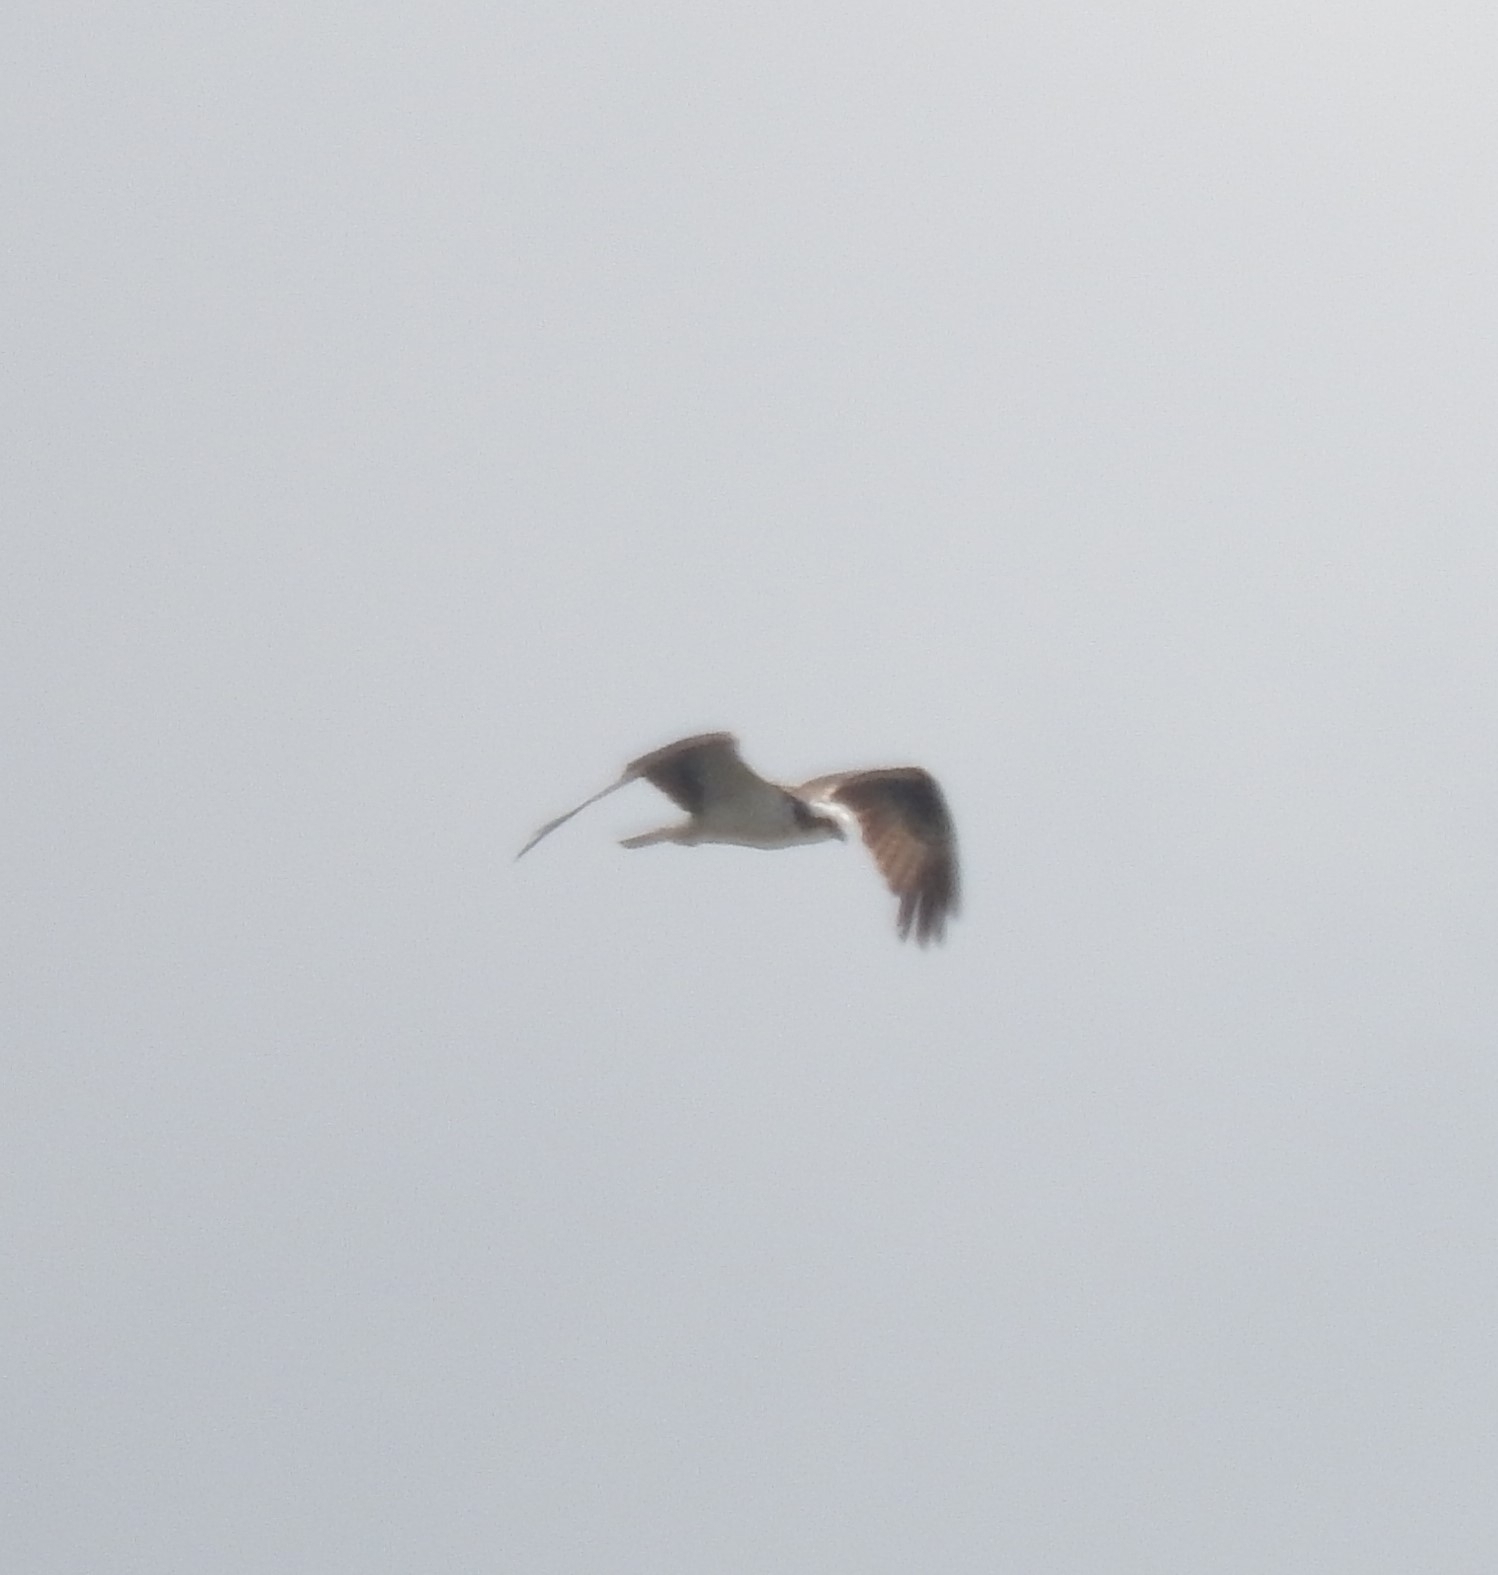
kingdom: Animalia
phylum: Chordata
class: Aves
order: Accipitriformes
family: Pandionidae
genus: Pandion
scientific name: Pandion haliaetus
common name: Osprey
